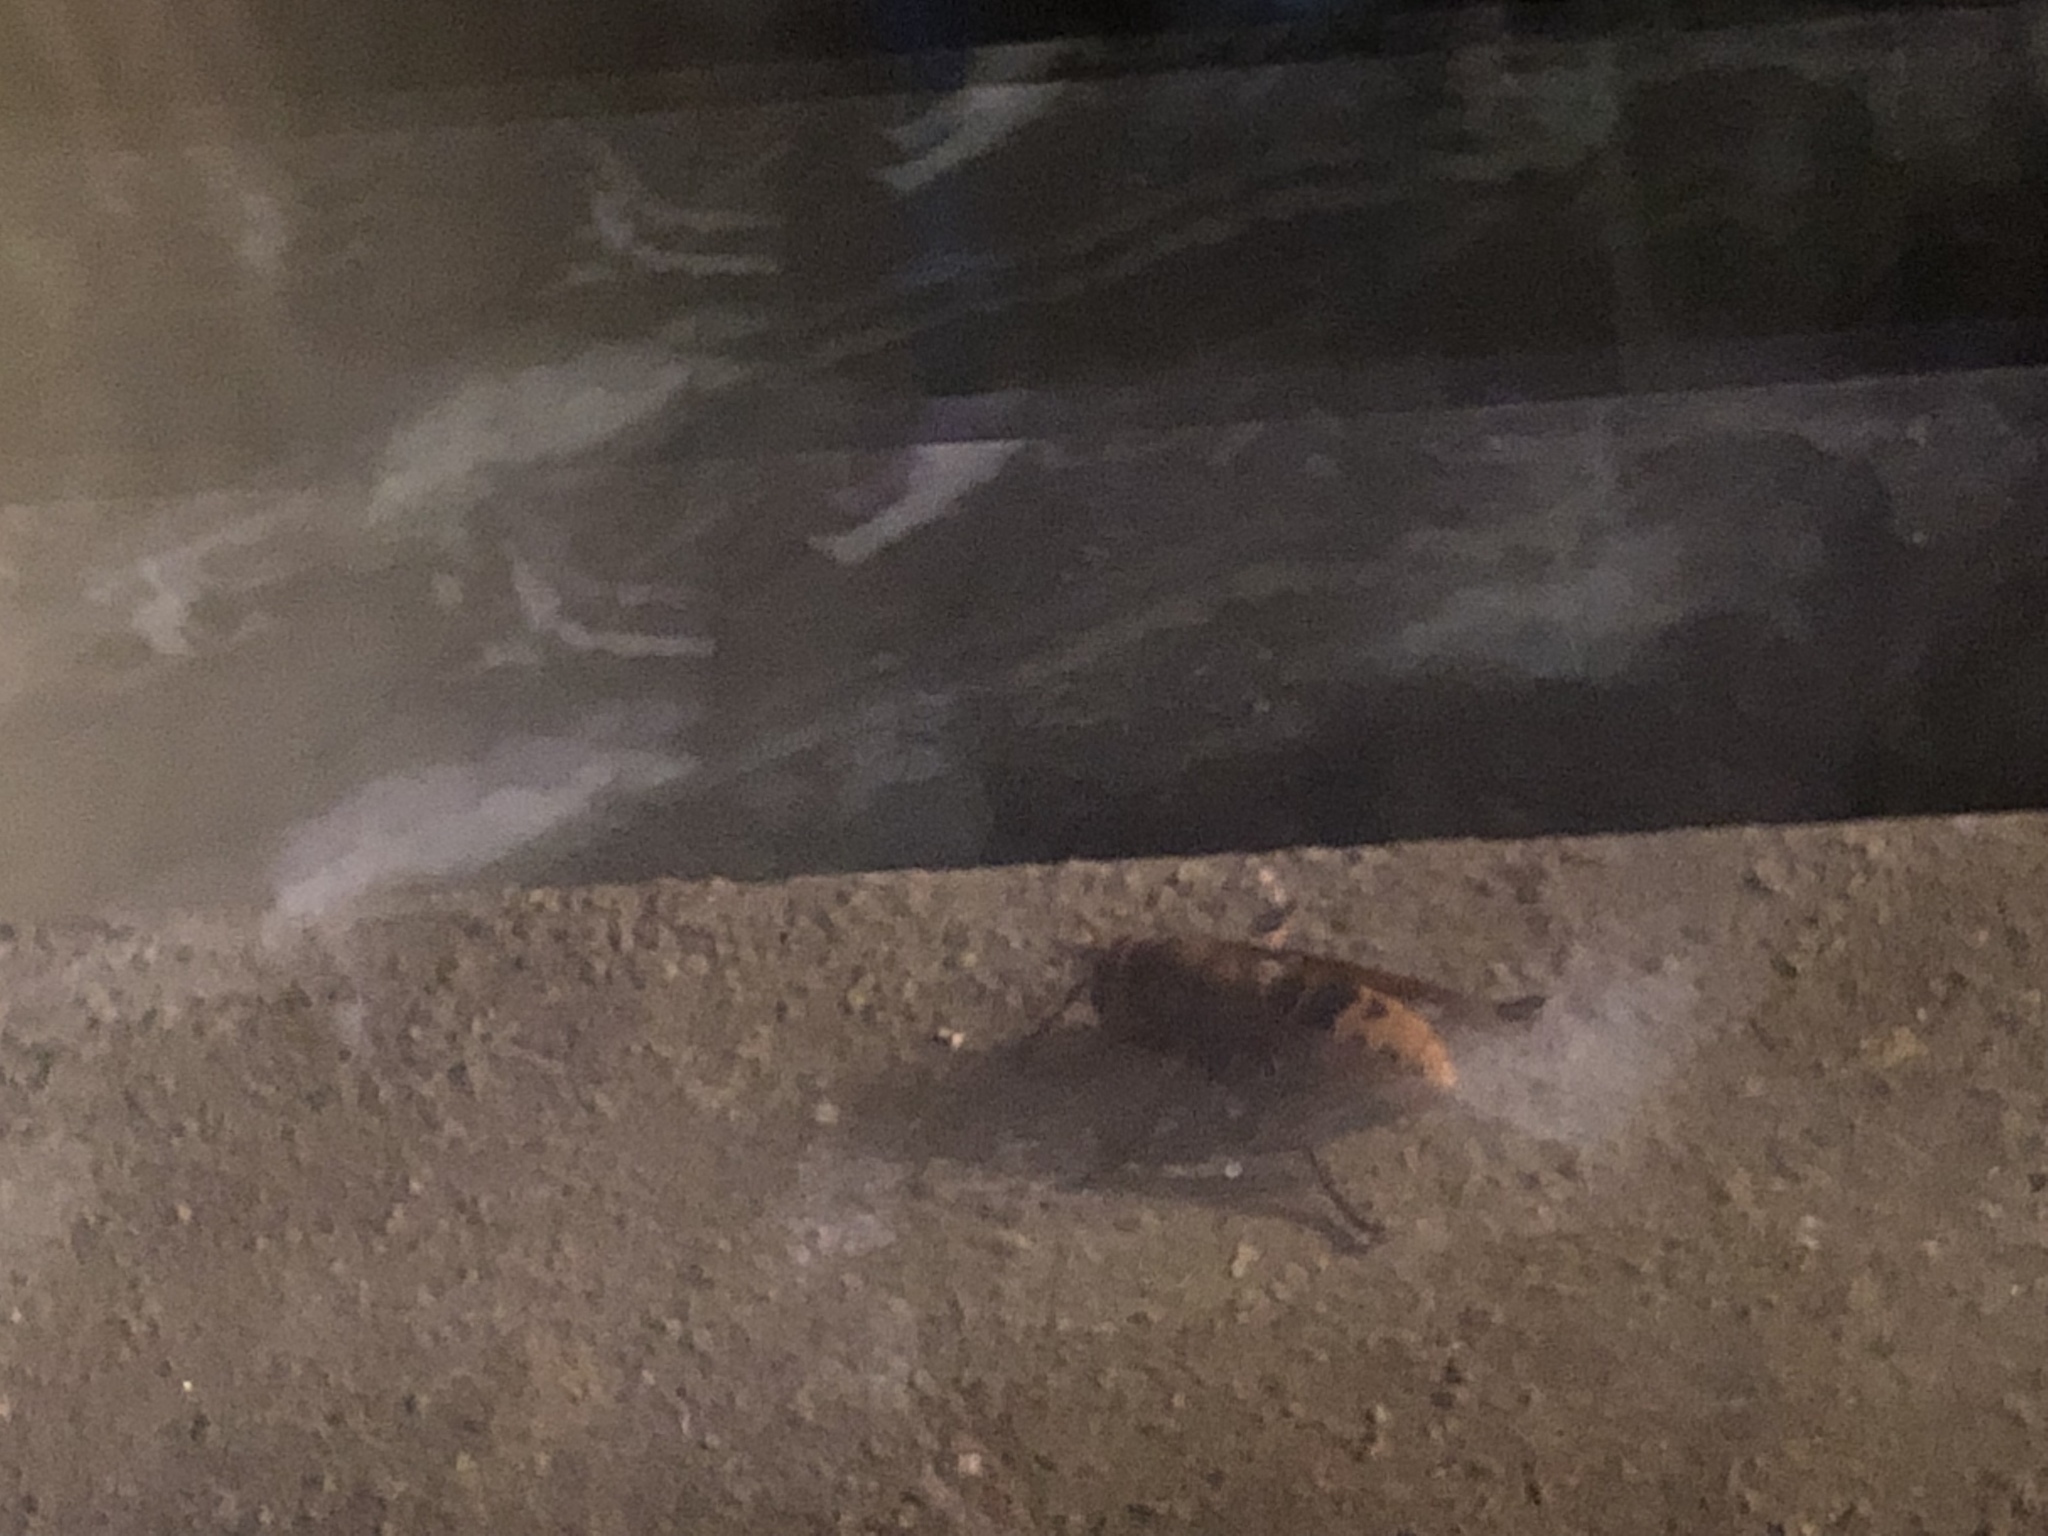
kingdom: Animalia
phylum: Arthropoda
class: Insecta
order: Hymenoptera
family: Vespidae
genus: Vespa
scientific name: Vespa crabro
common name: Hornet
